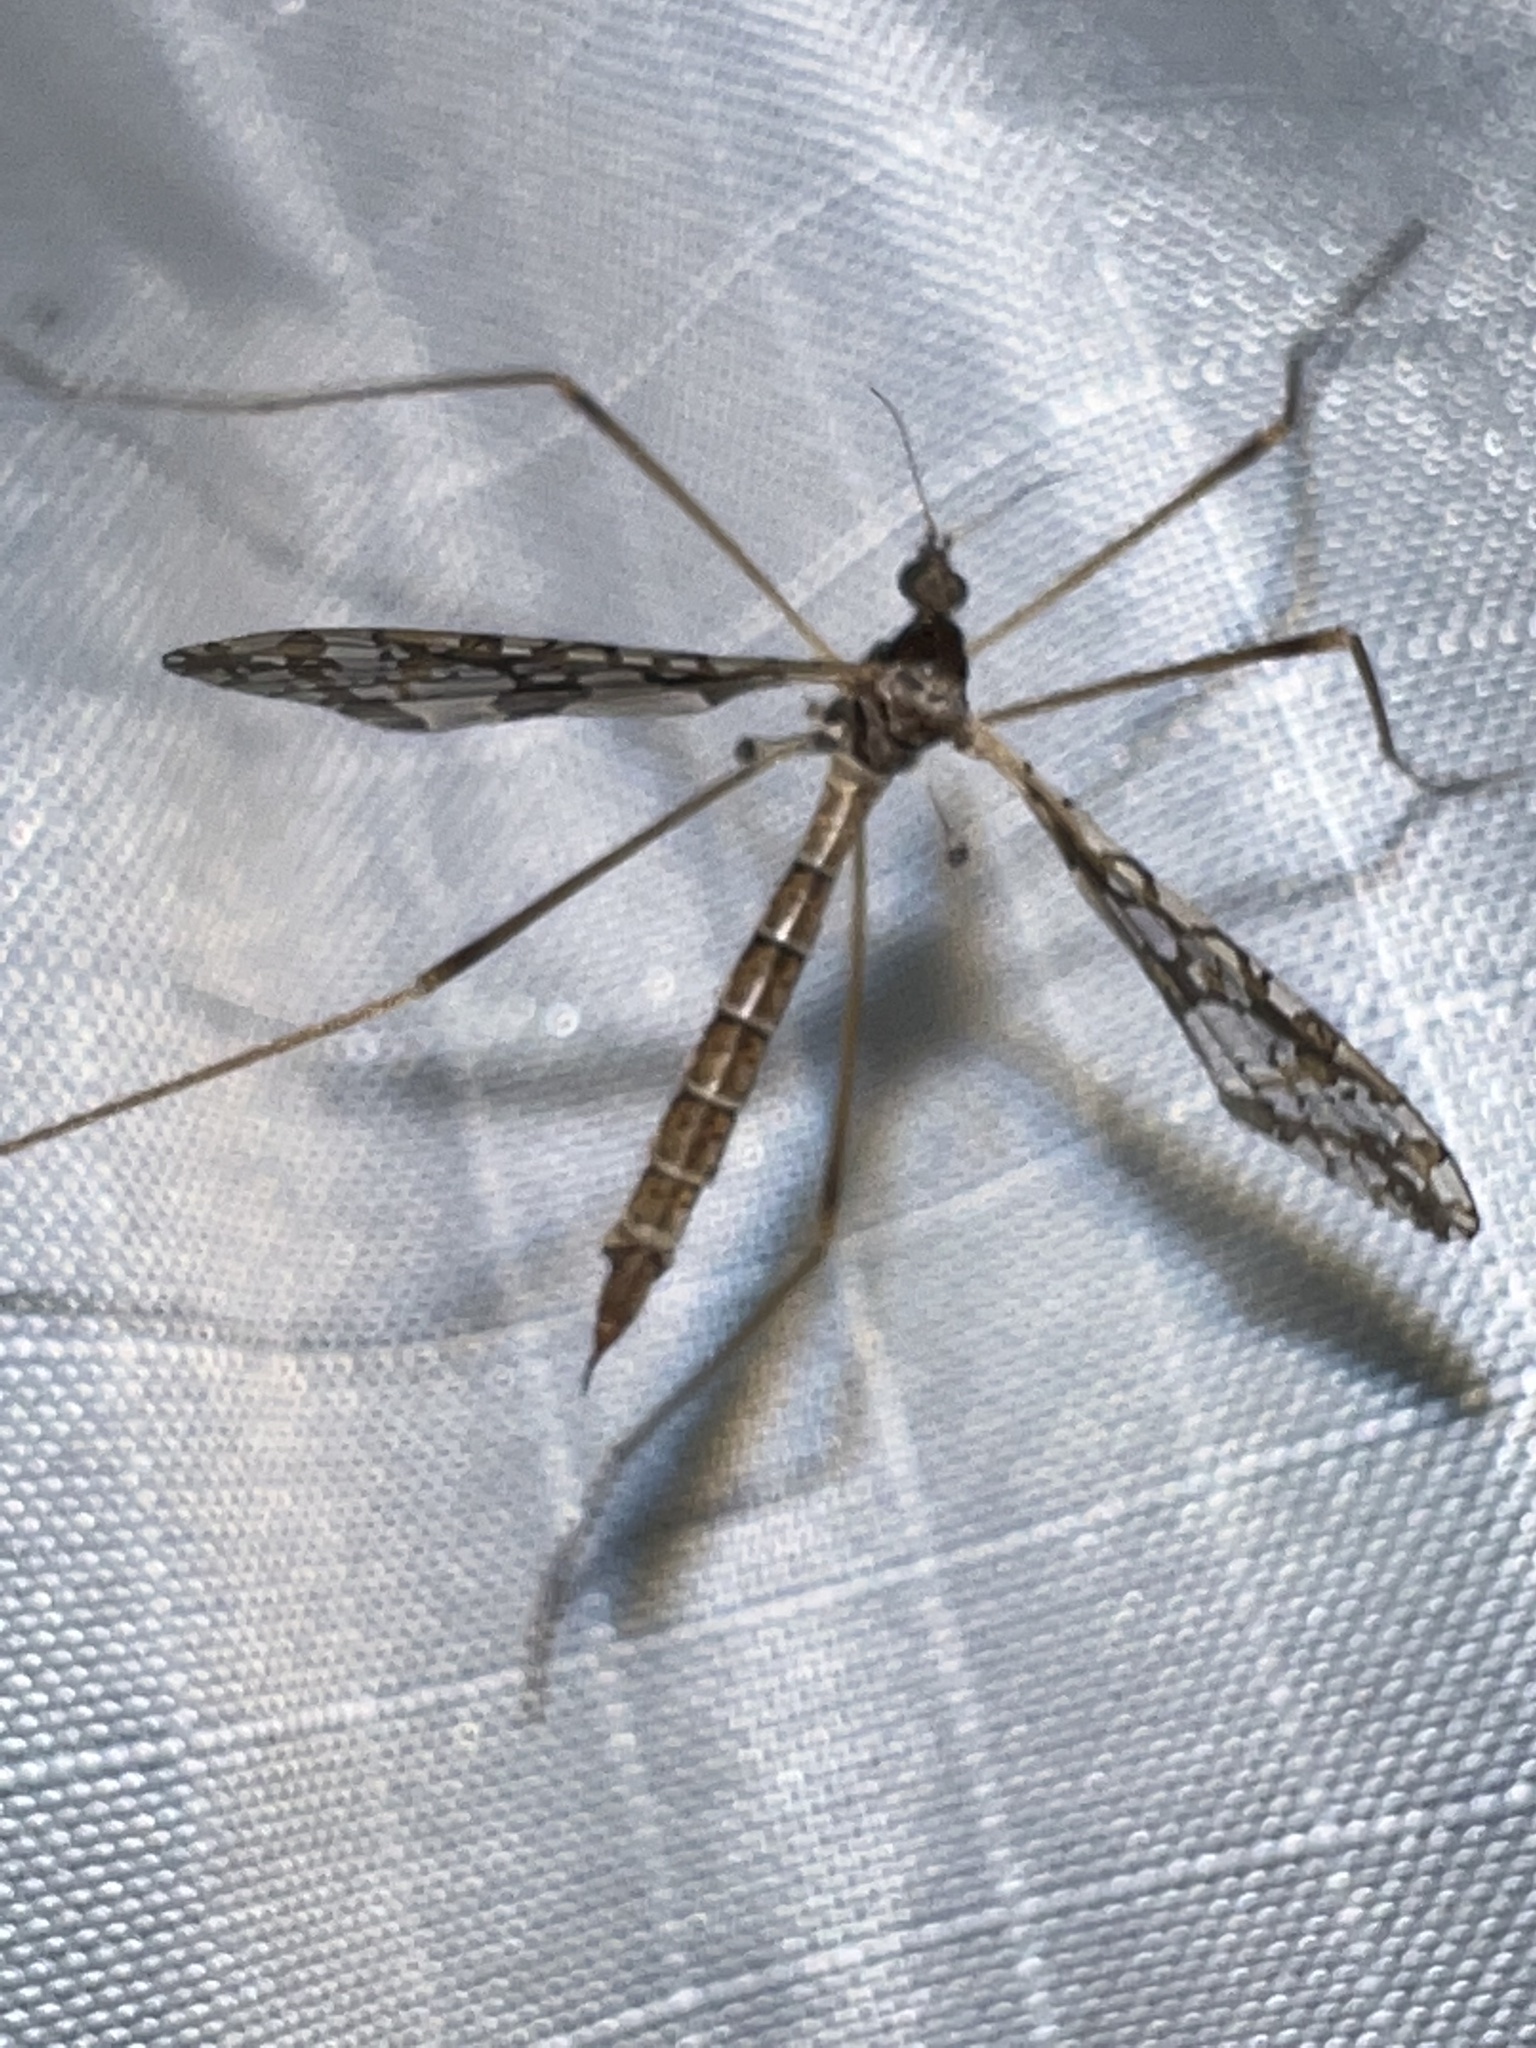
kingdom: Animalia
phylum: Arthropoda
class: Insecta
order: Diptera
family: Limoniidae
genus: Epiphragma
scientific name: Epiphragma solatrix
